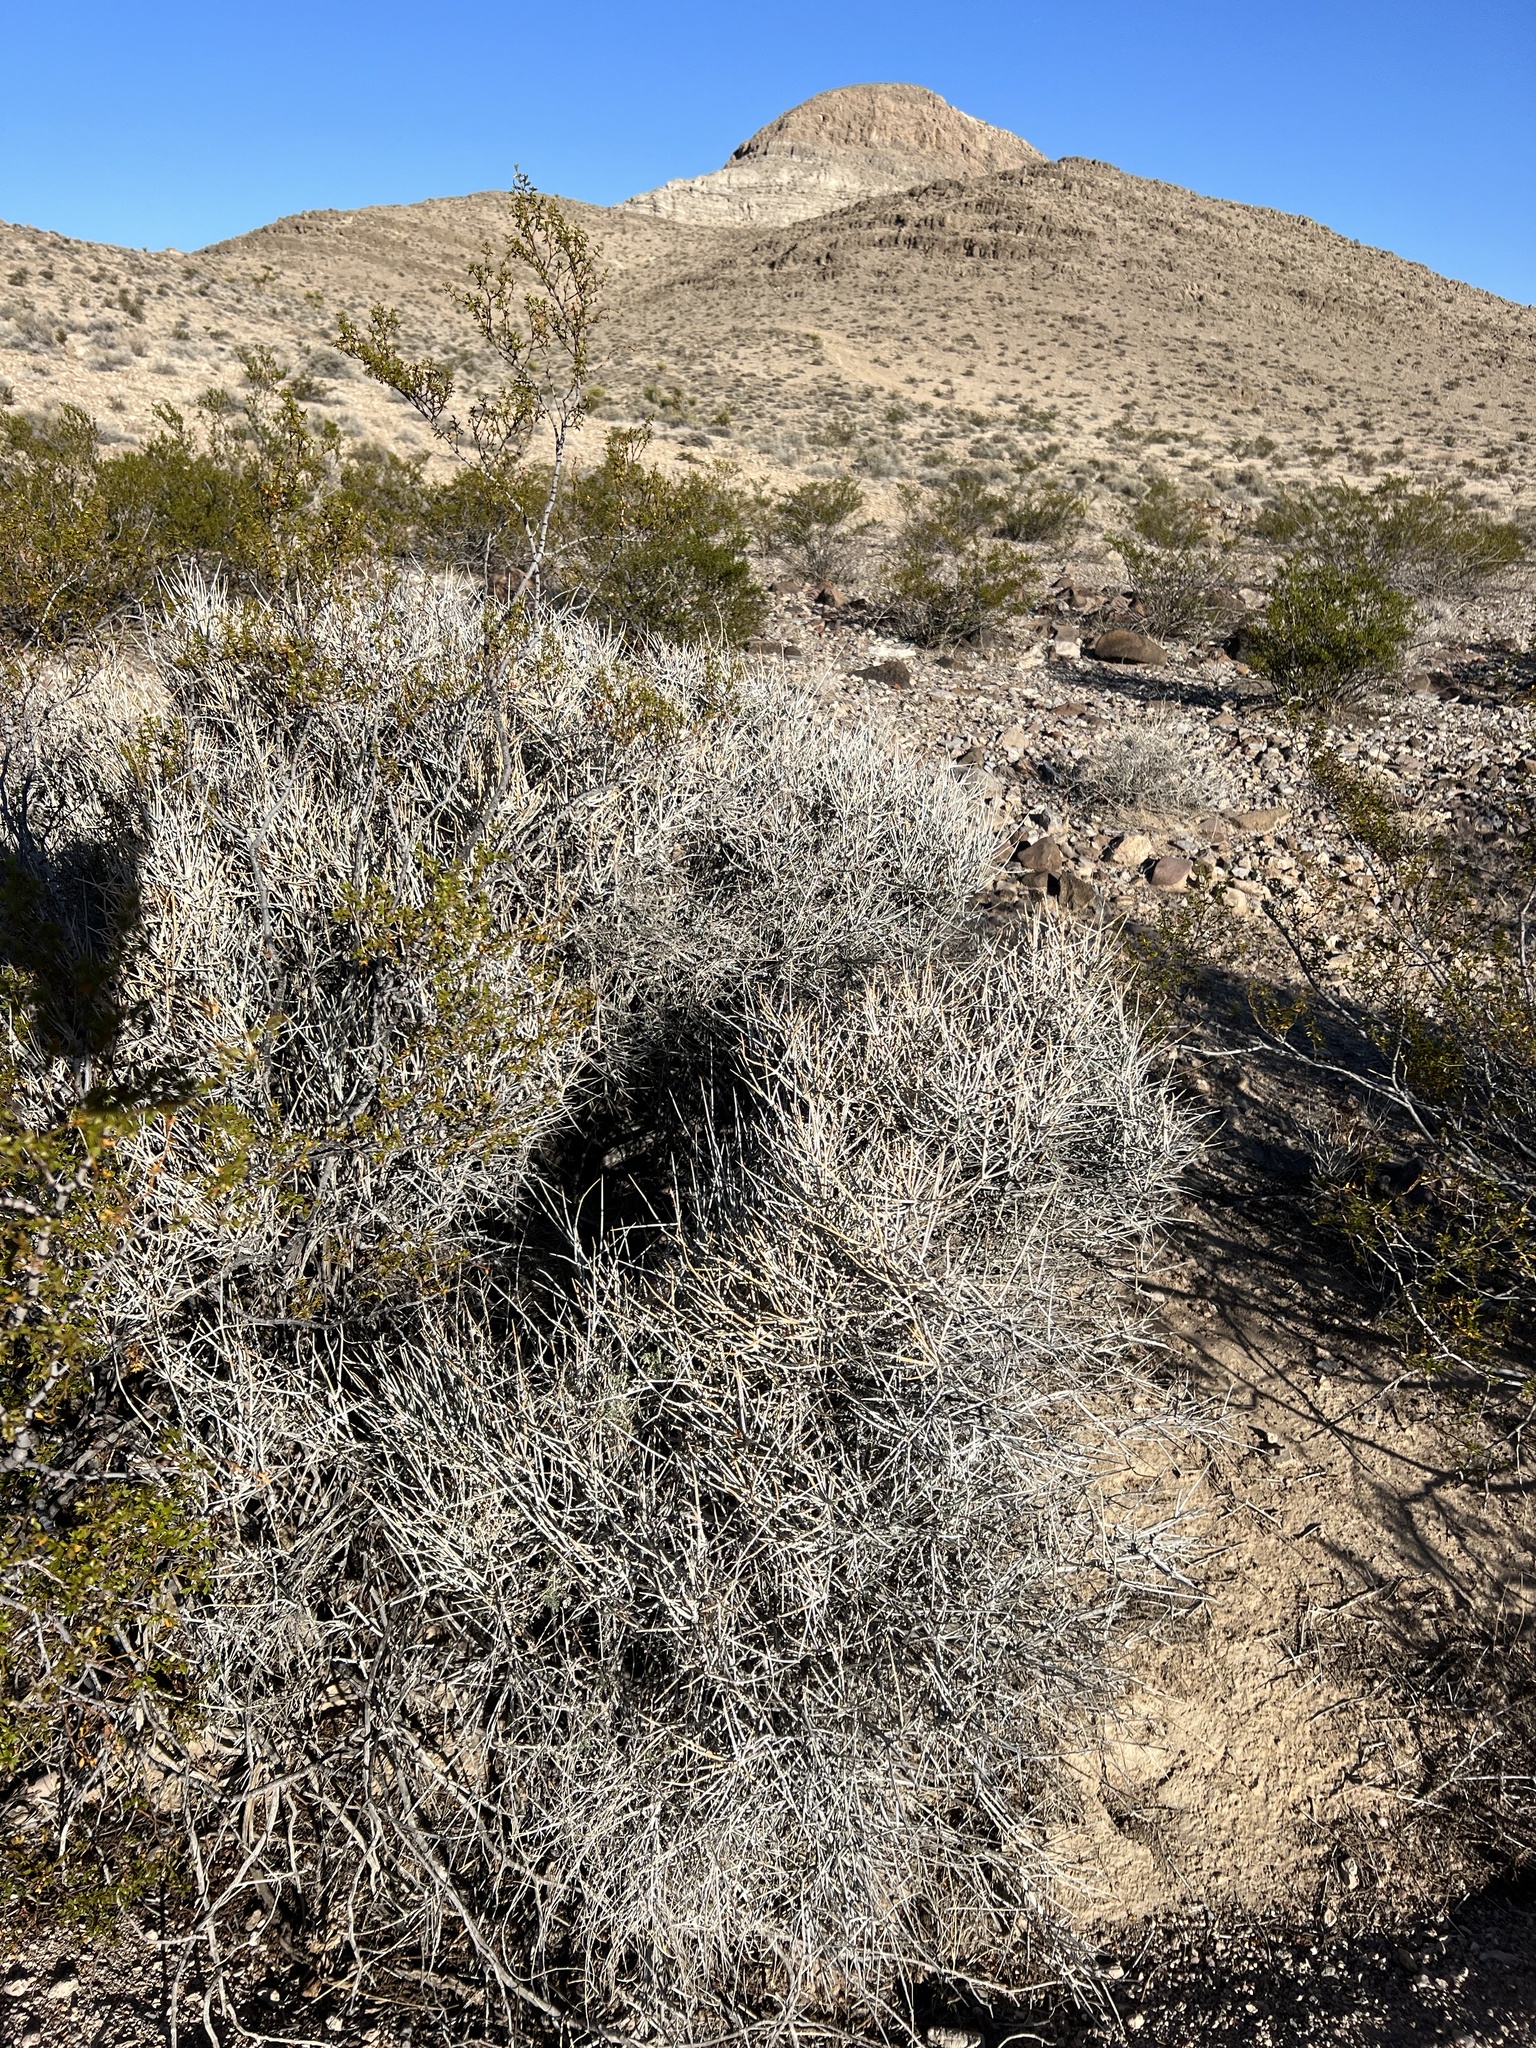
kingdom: Plantae
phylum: Tracheophyta
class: Gnetopsida
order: Ephedrales
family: Ephedraceae
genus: Ephedra
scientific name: Ephedra nevadensis
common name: Gray ephedra
